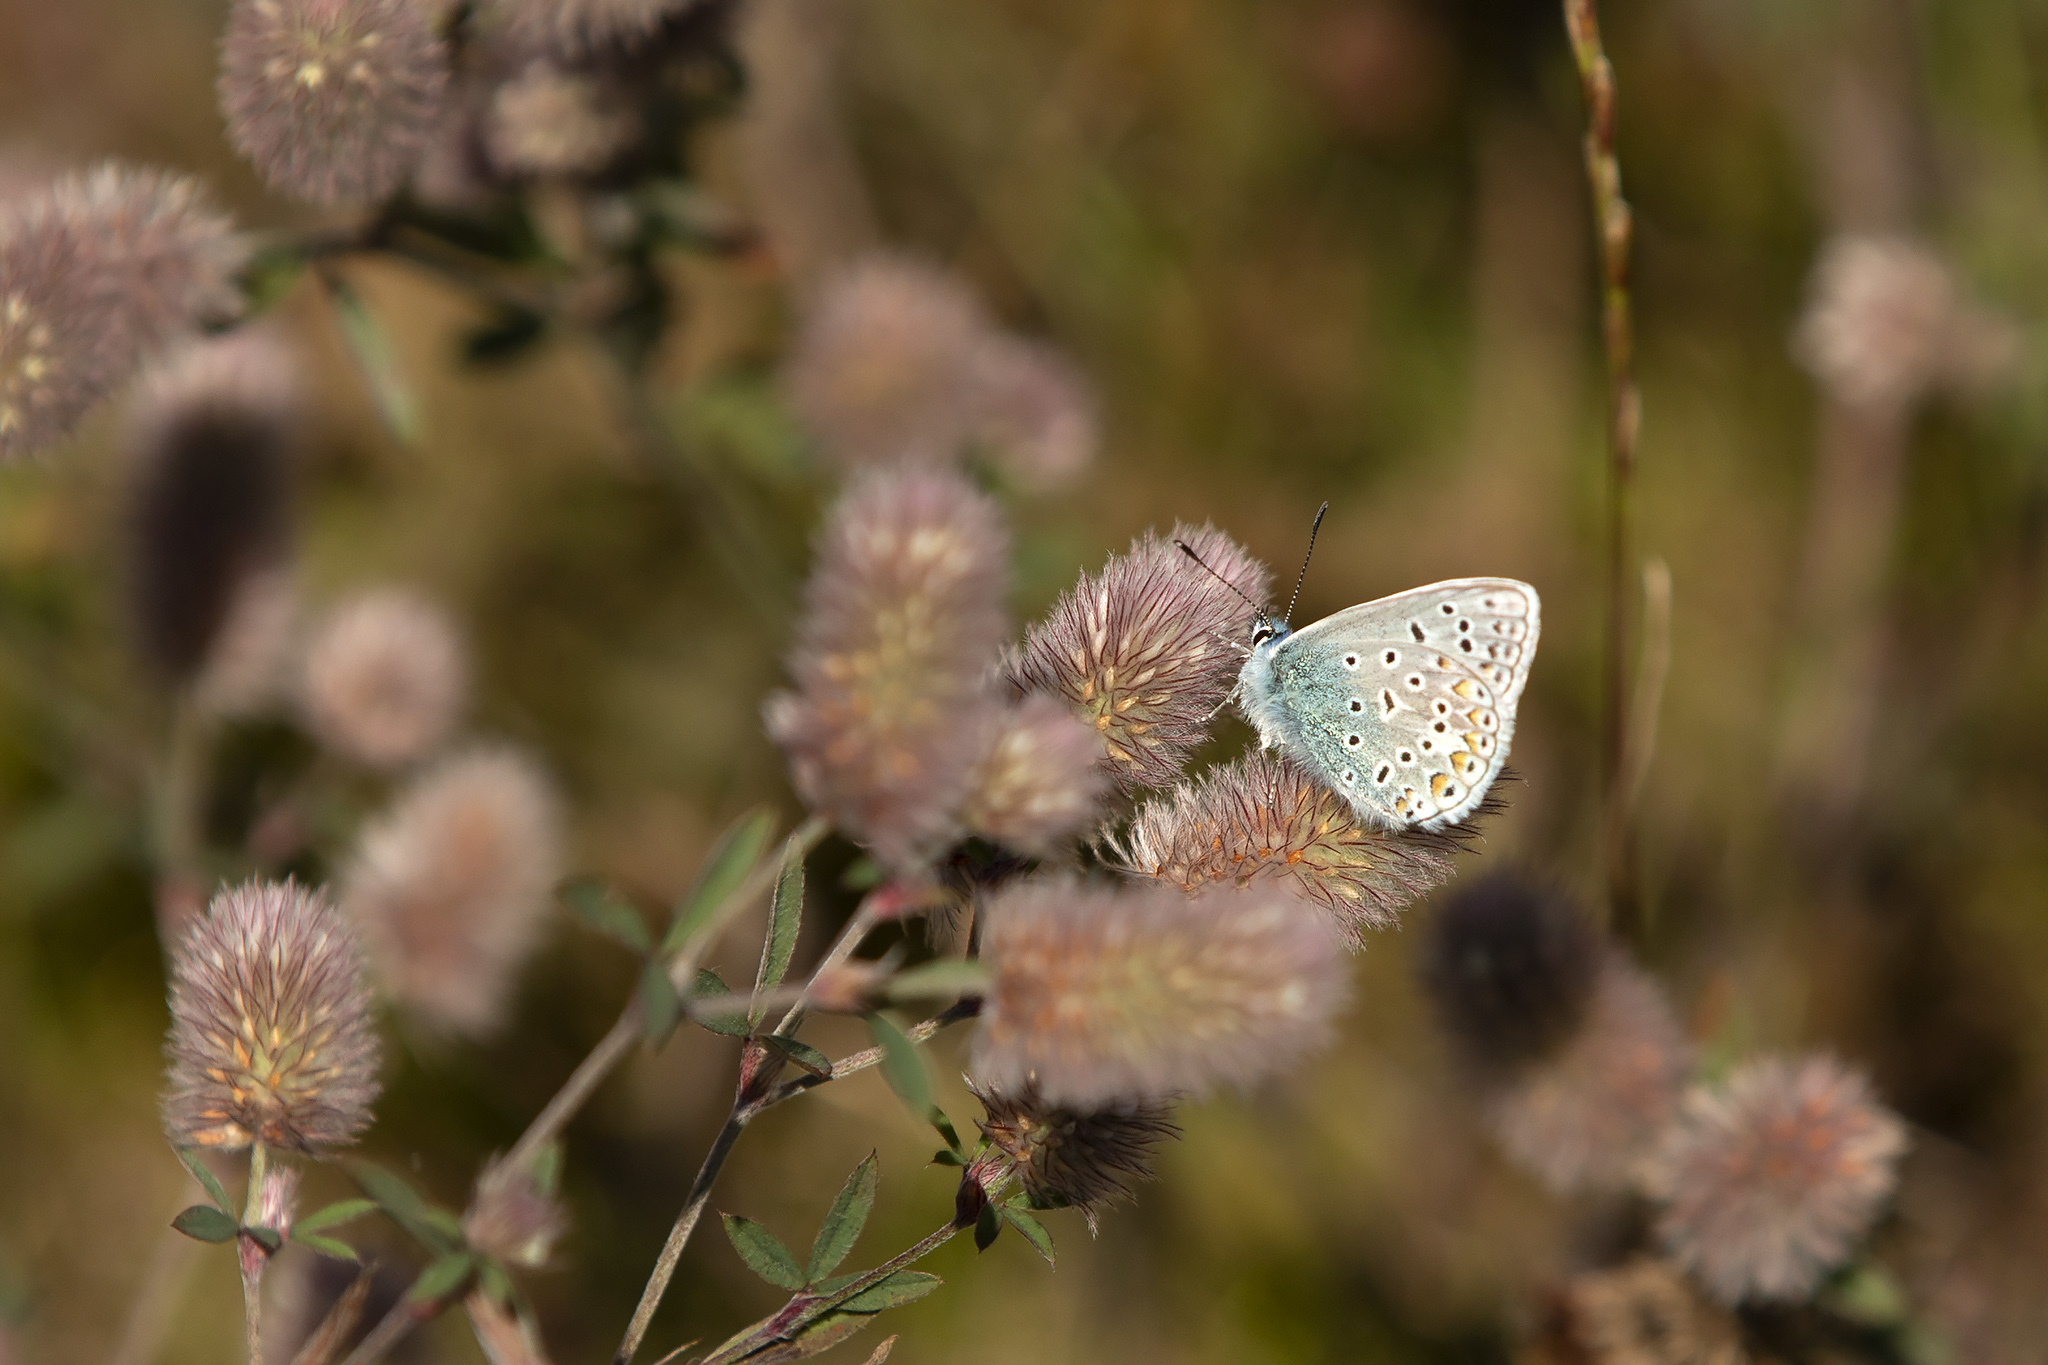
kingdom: Animalia
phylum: Arthropoda
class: Insecta
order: Lepidoptera
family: Lycaenidae
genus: Polyommatus
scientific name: Polyommatus icarus
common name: Common blue
